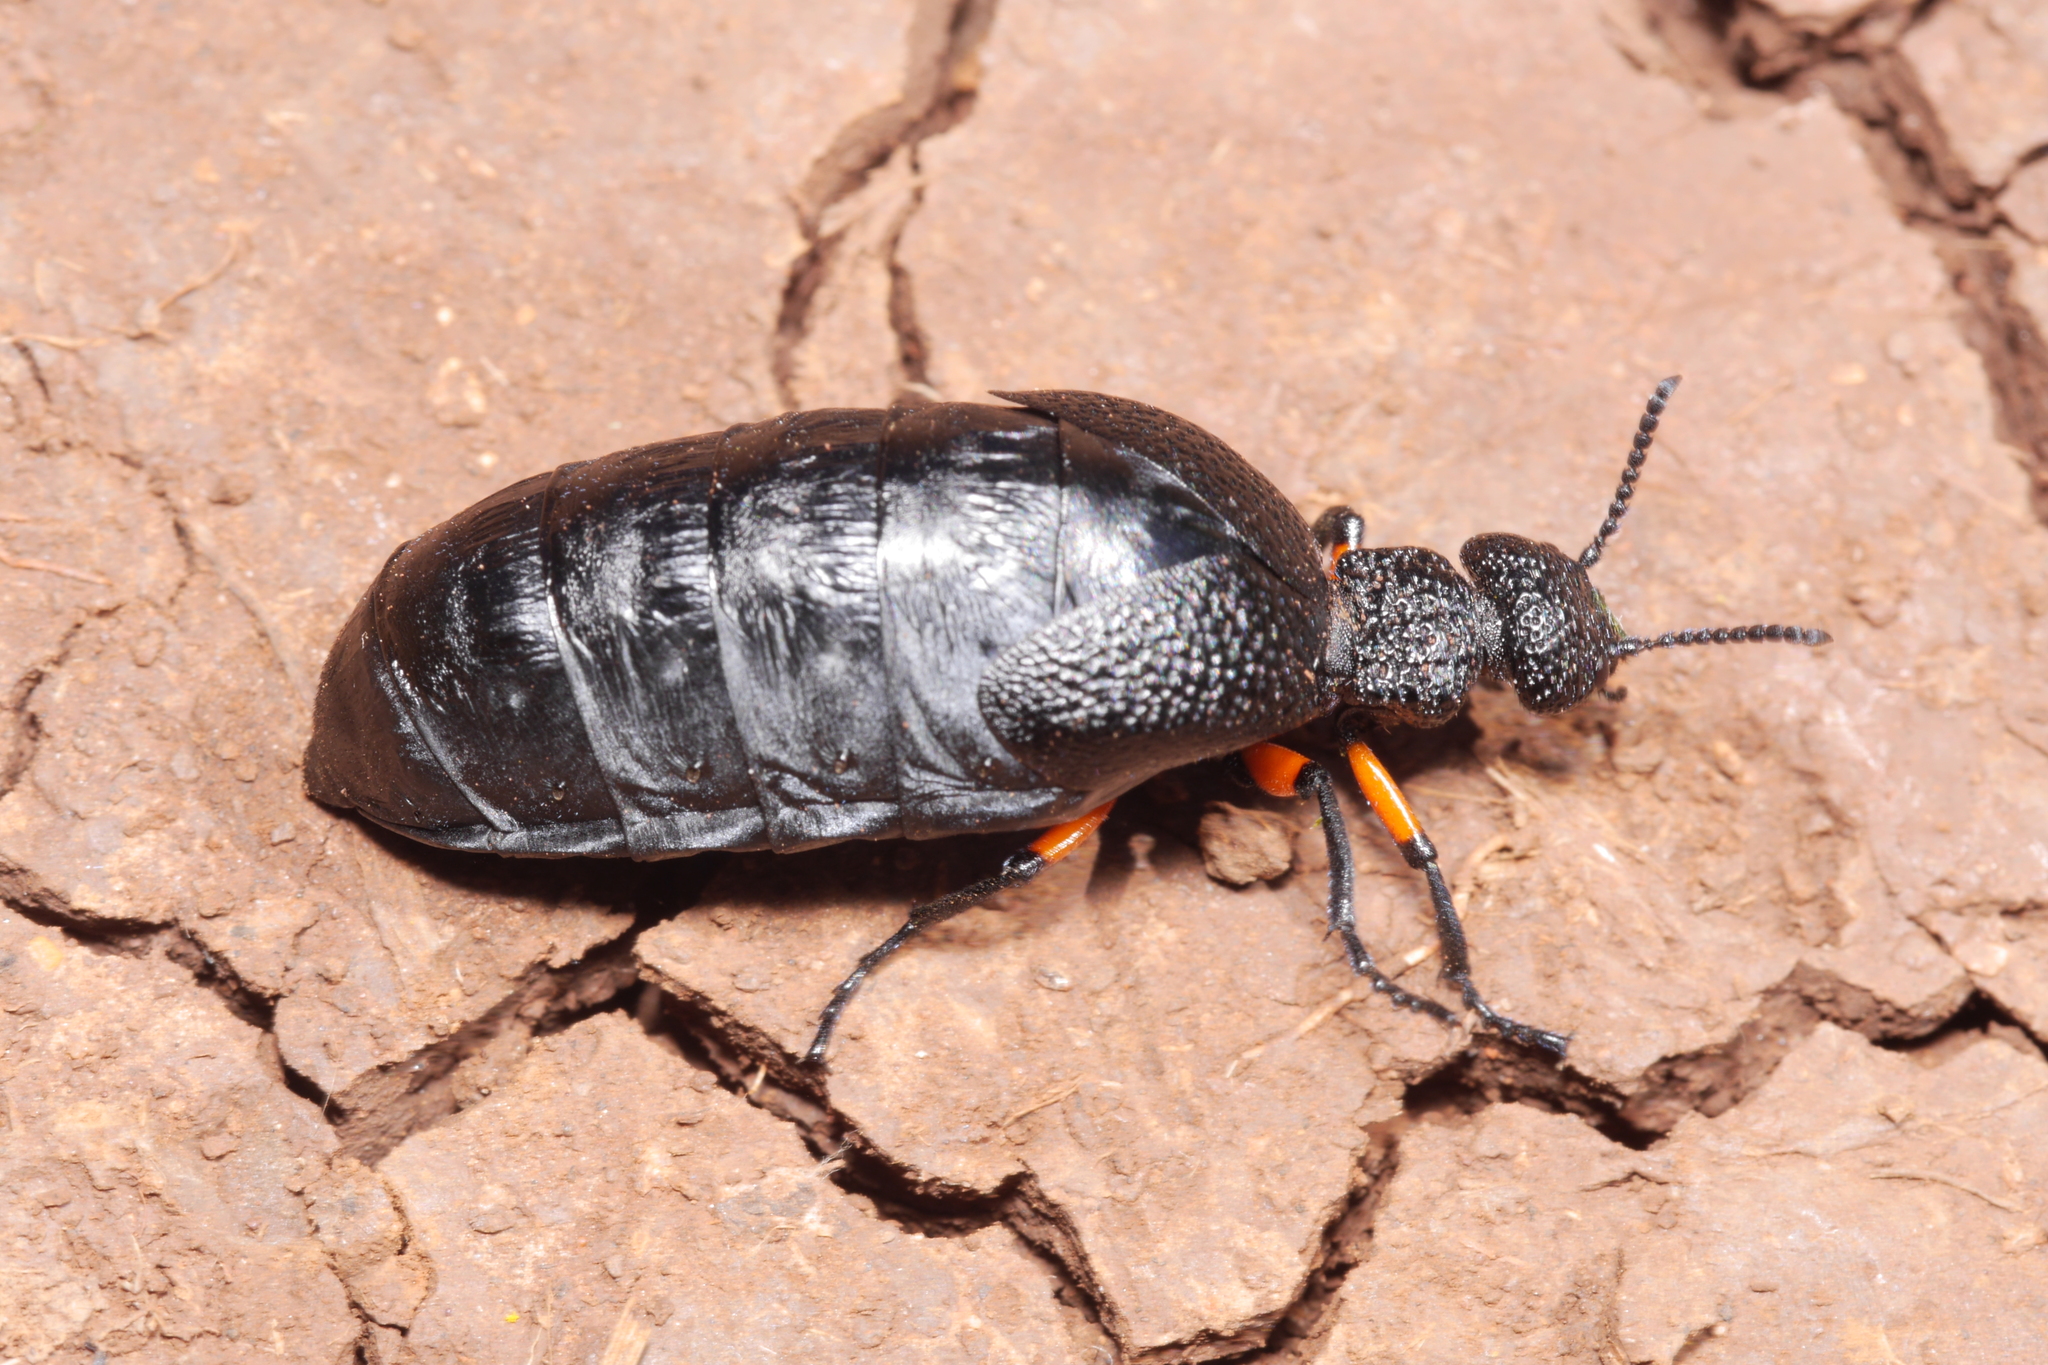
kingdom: Animalia
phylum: Arthropoda
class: Insecta
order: Coleoptera
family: Meloidae
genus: Meloe
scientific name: Meloe erythrocnemus
